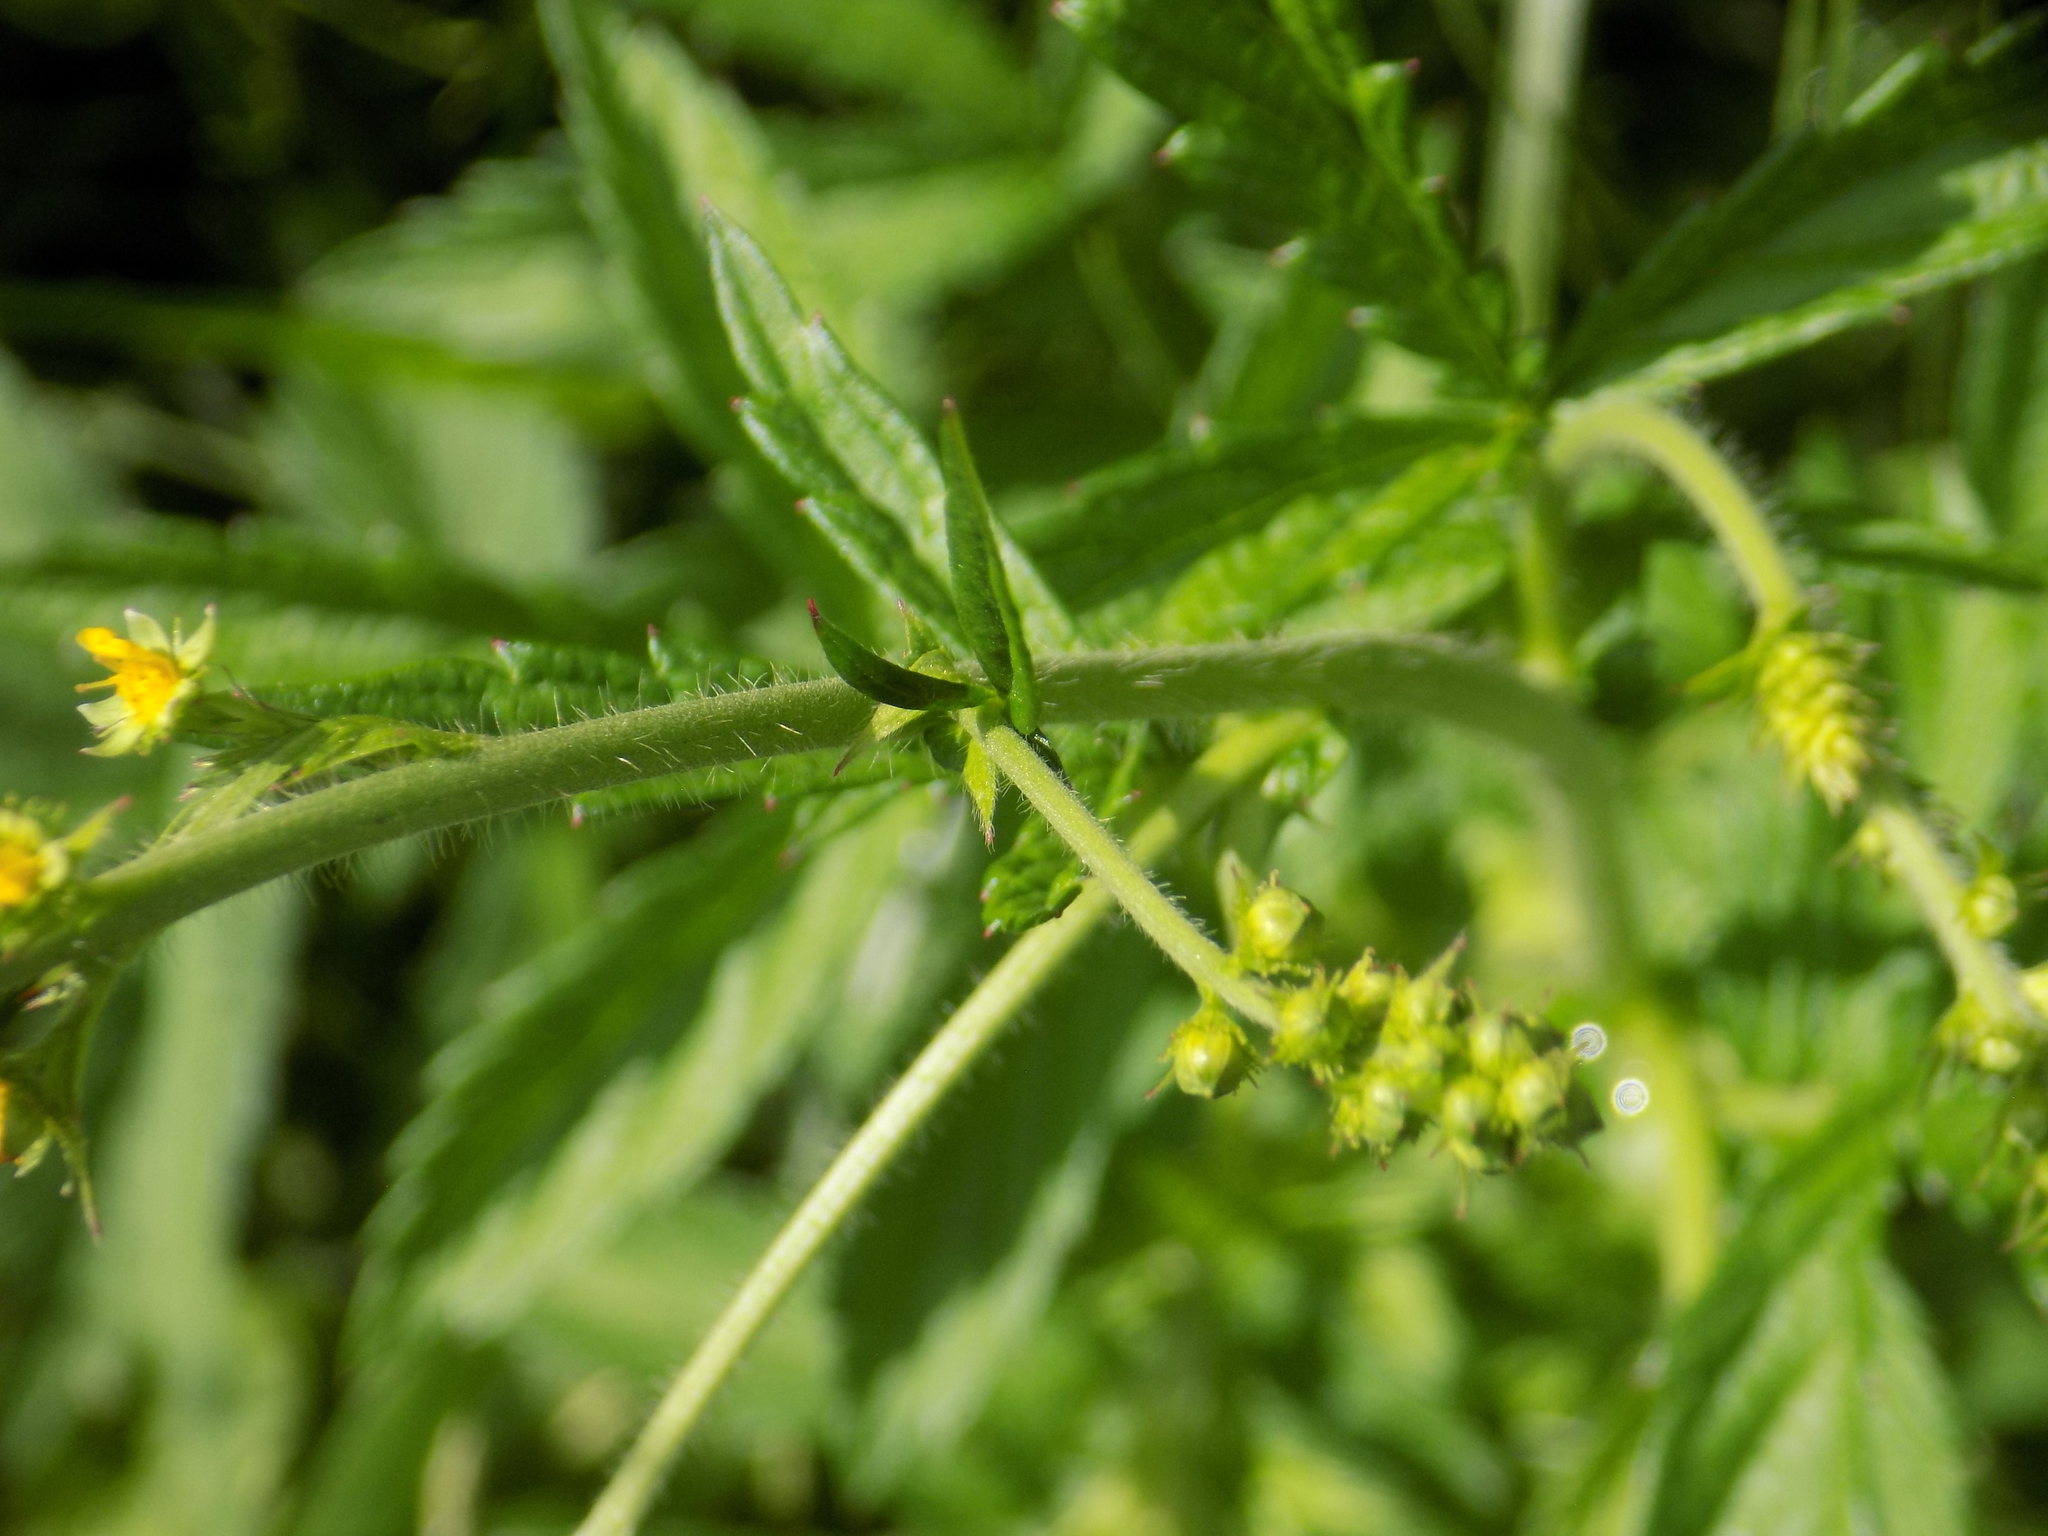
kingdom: Plantae
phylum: Tracheophyta
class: Magnoliopsida
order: Rosales
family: Rosaceae
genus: Agrimonia
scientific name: Agrimonia pilosa
